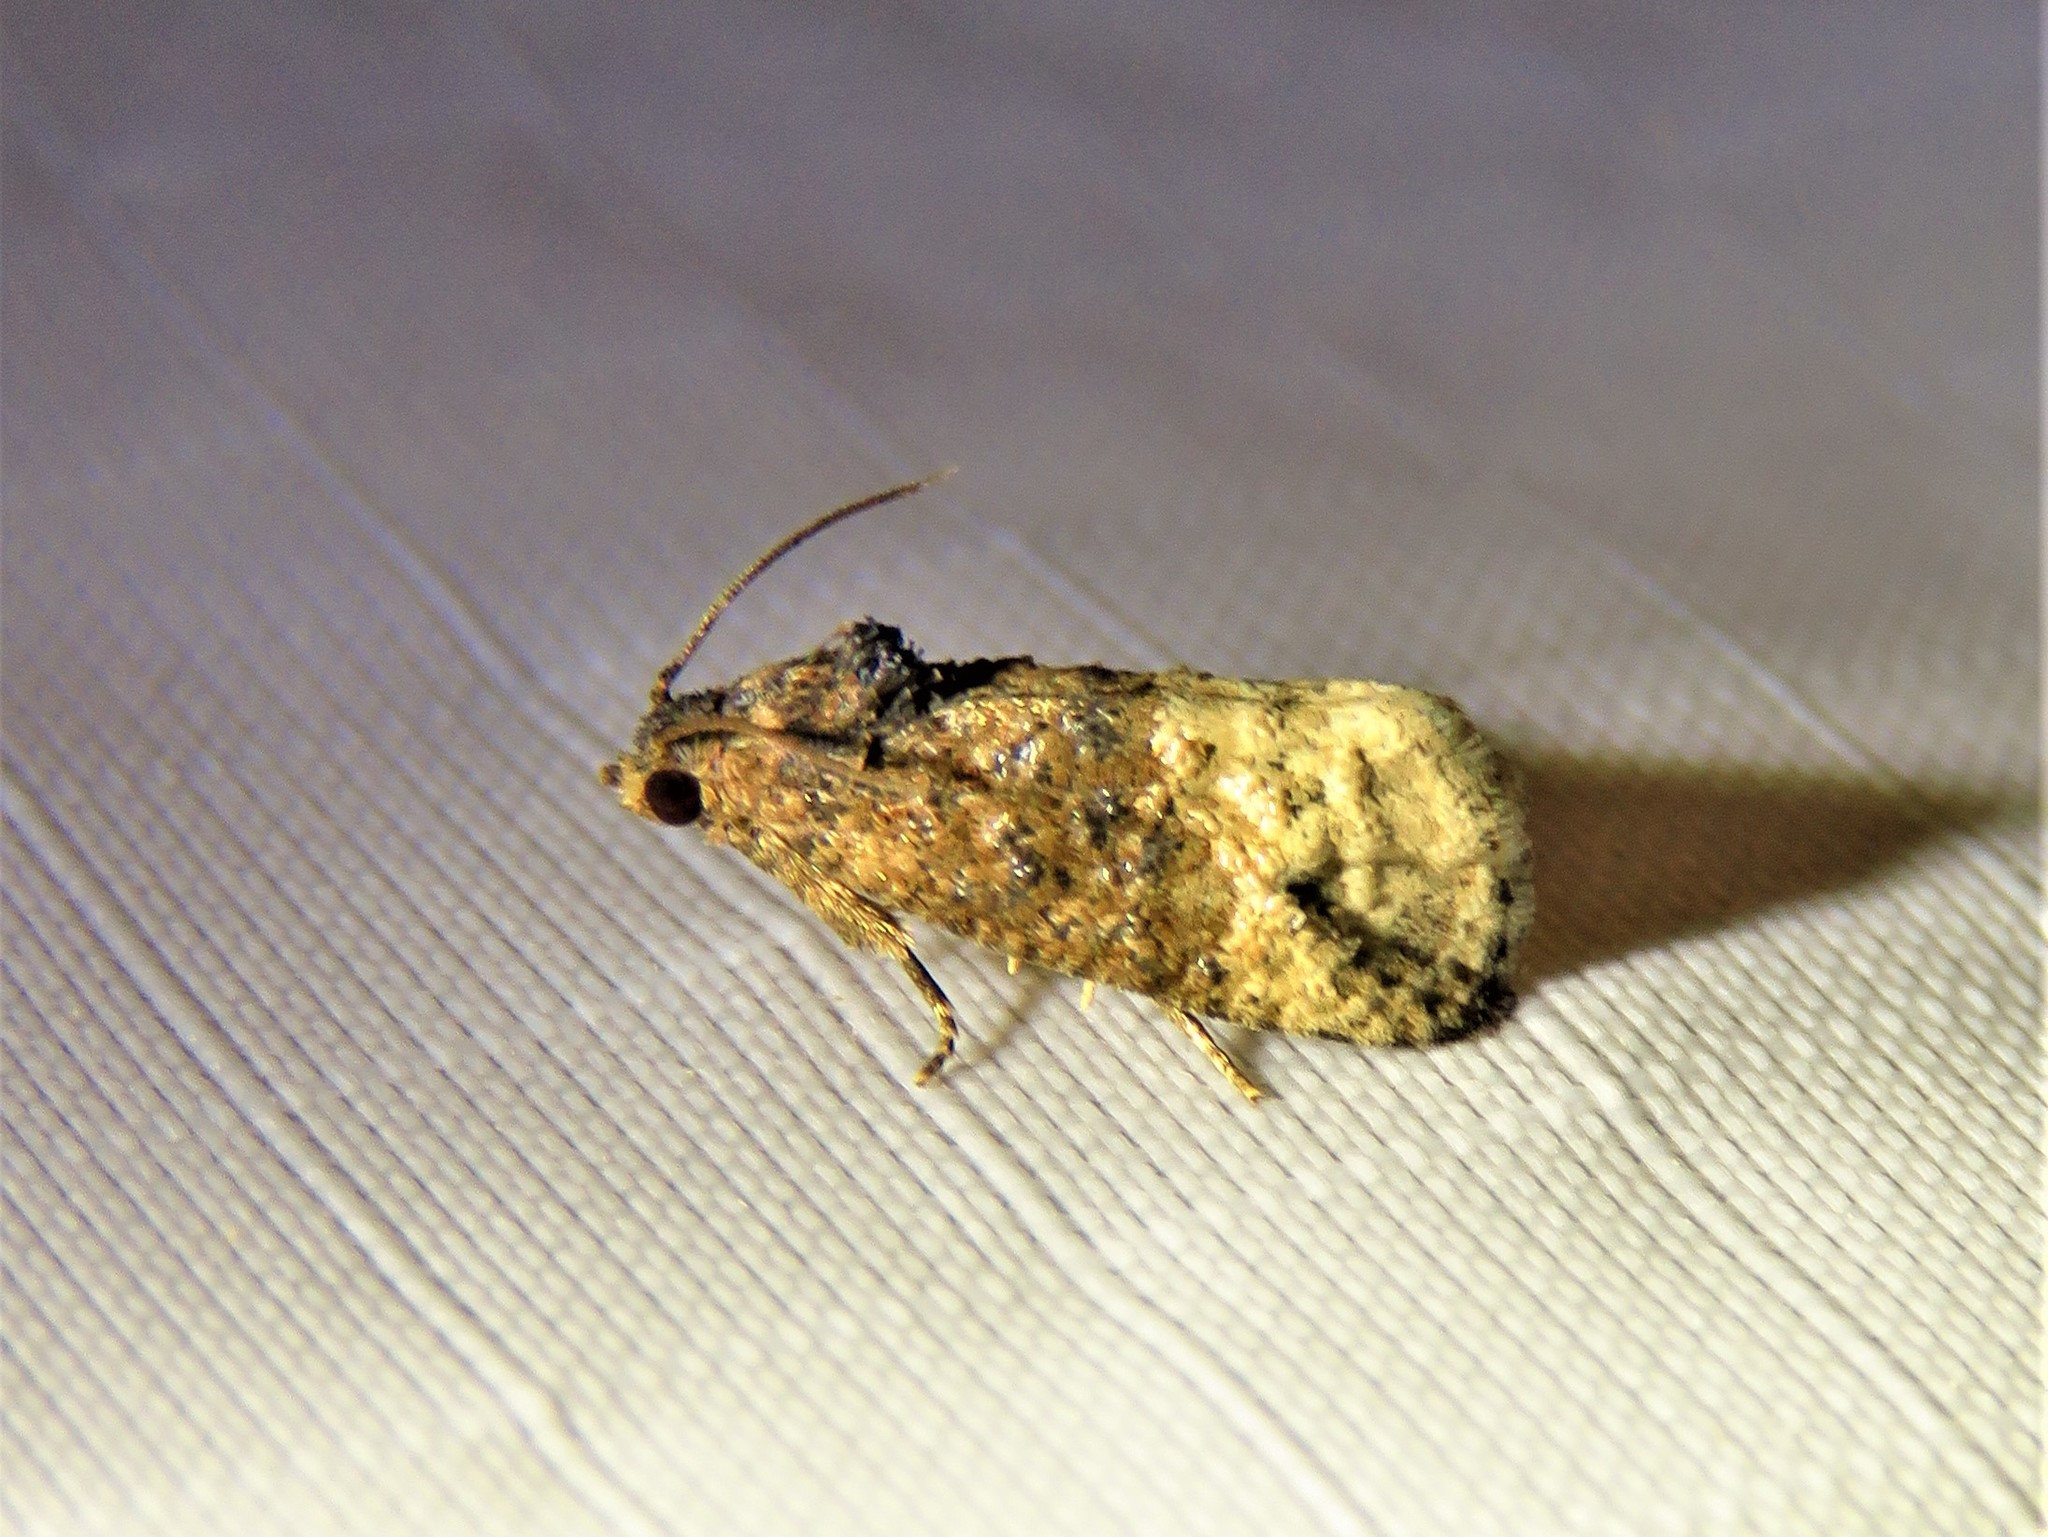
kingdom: Animalia
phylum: Arthropoda
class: Insecta
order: Lepidoptera
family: Tortricidae
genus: Ecdytolopha
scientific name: Ecdytolopha mana
